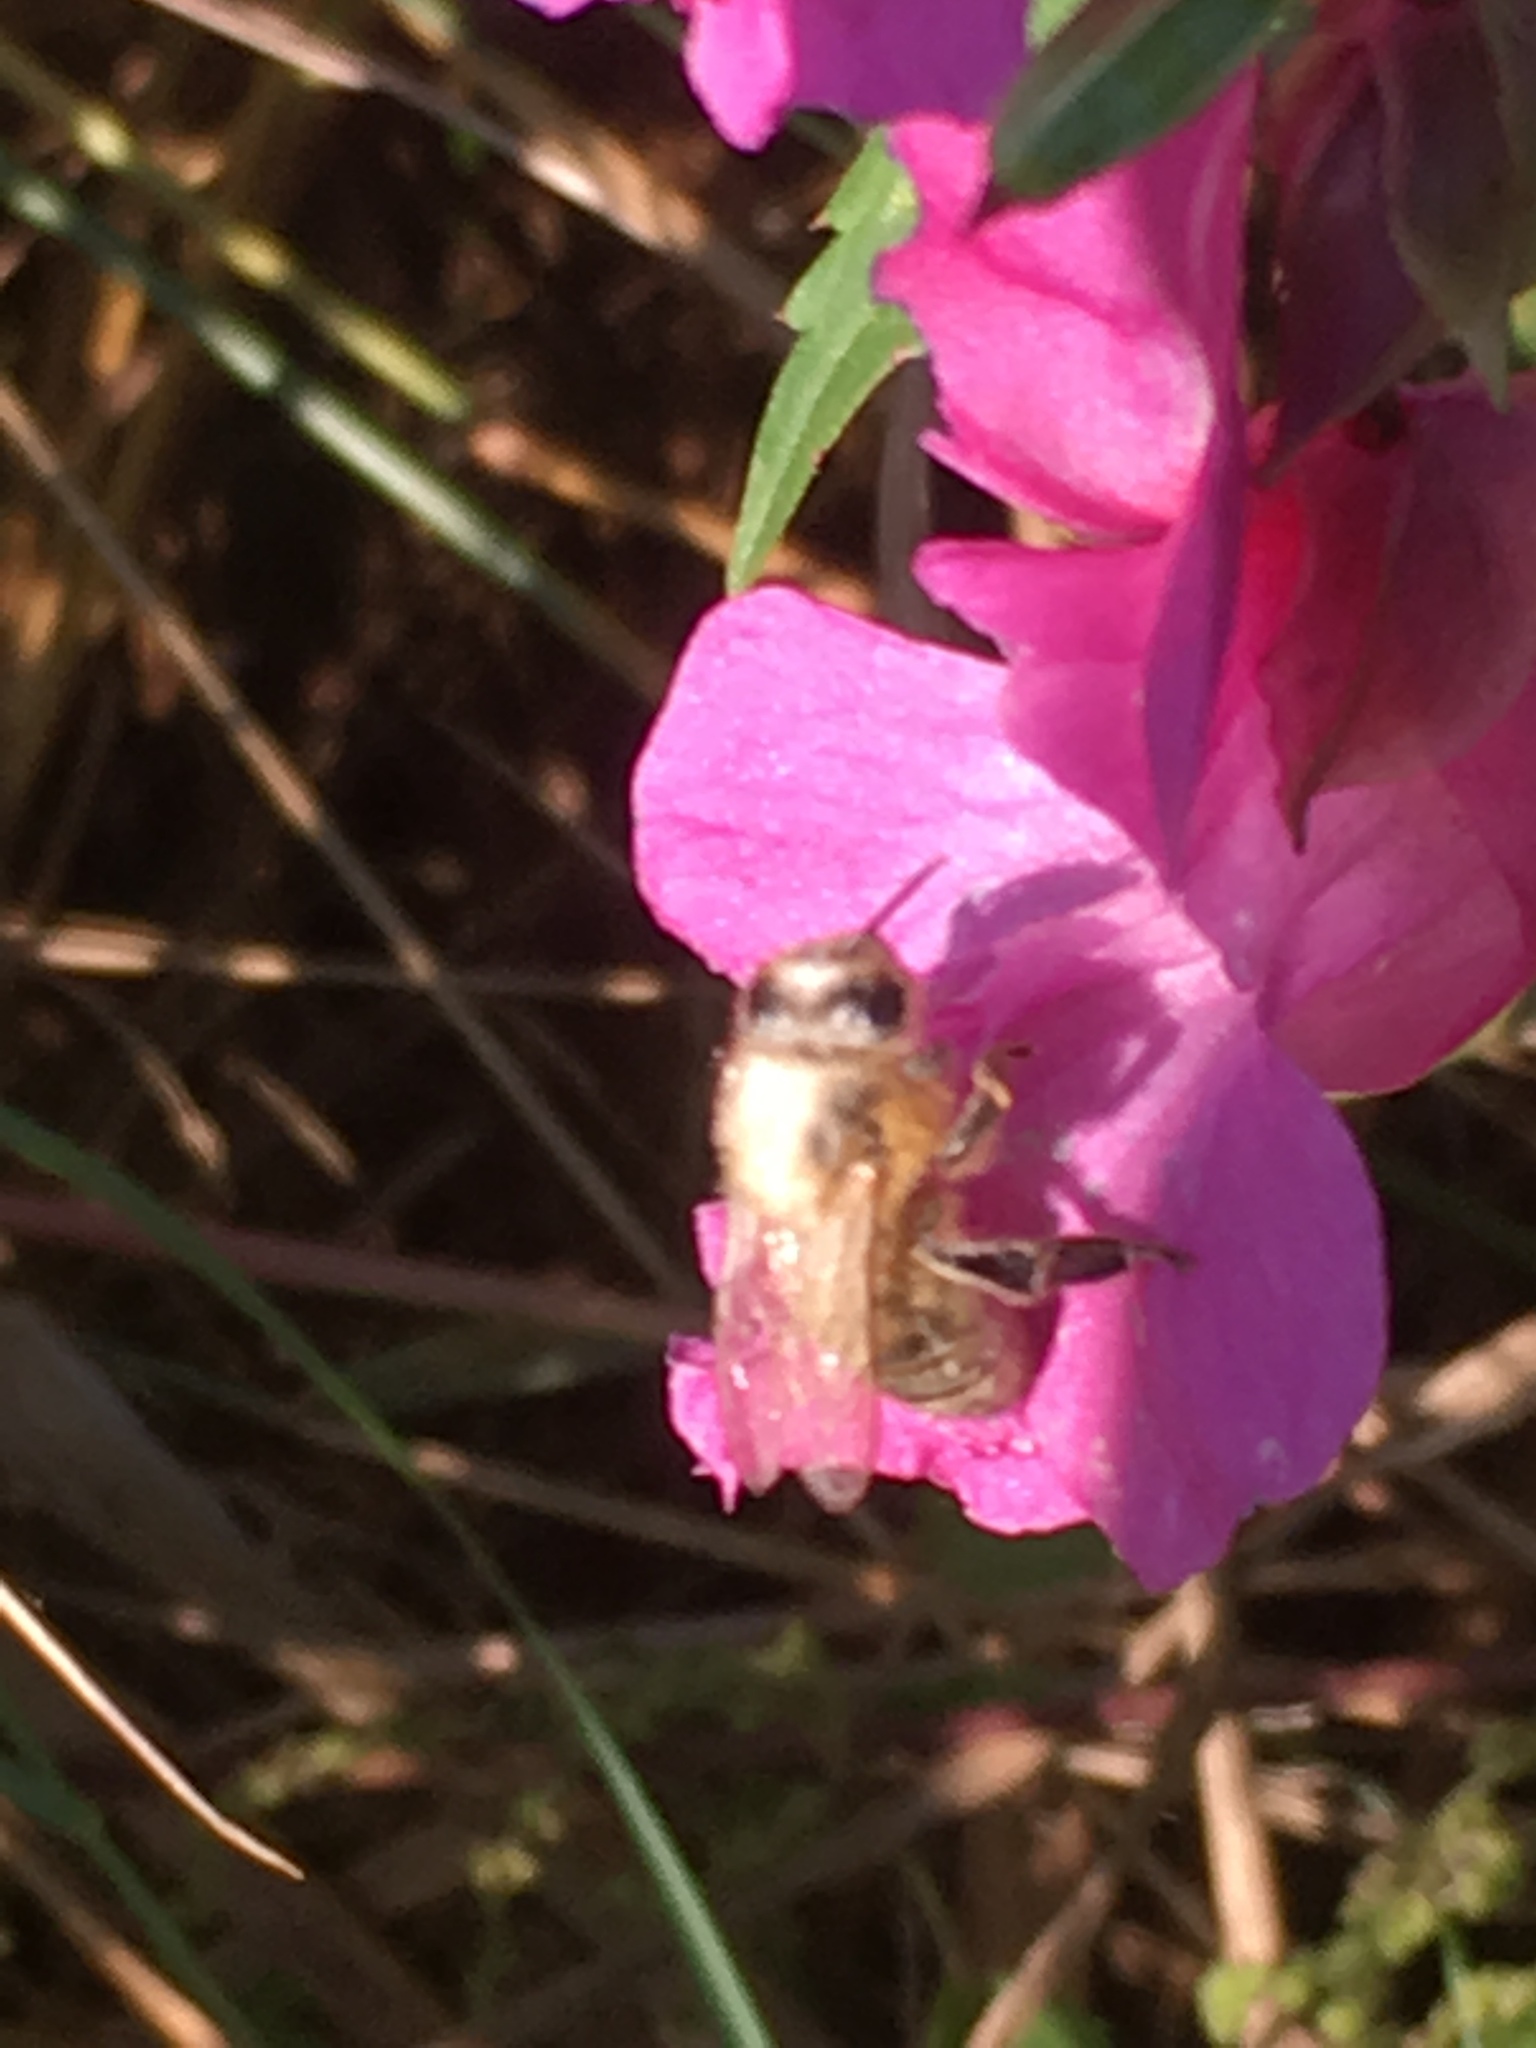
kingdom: Animalia
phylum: Arthropoda
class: Insecta
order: Hymenoptera
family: Apidae
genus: Apis
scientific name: Apis mellifera
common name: Honey bee
